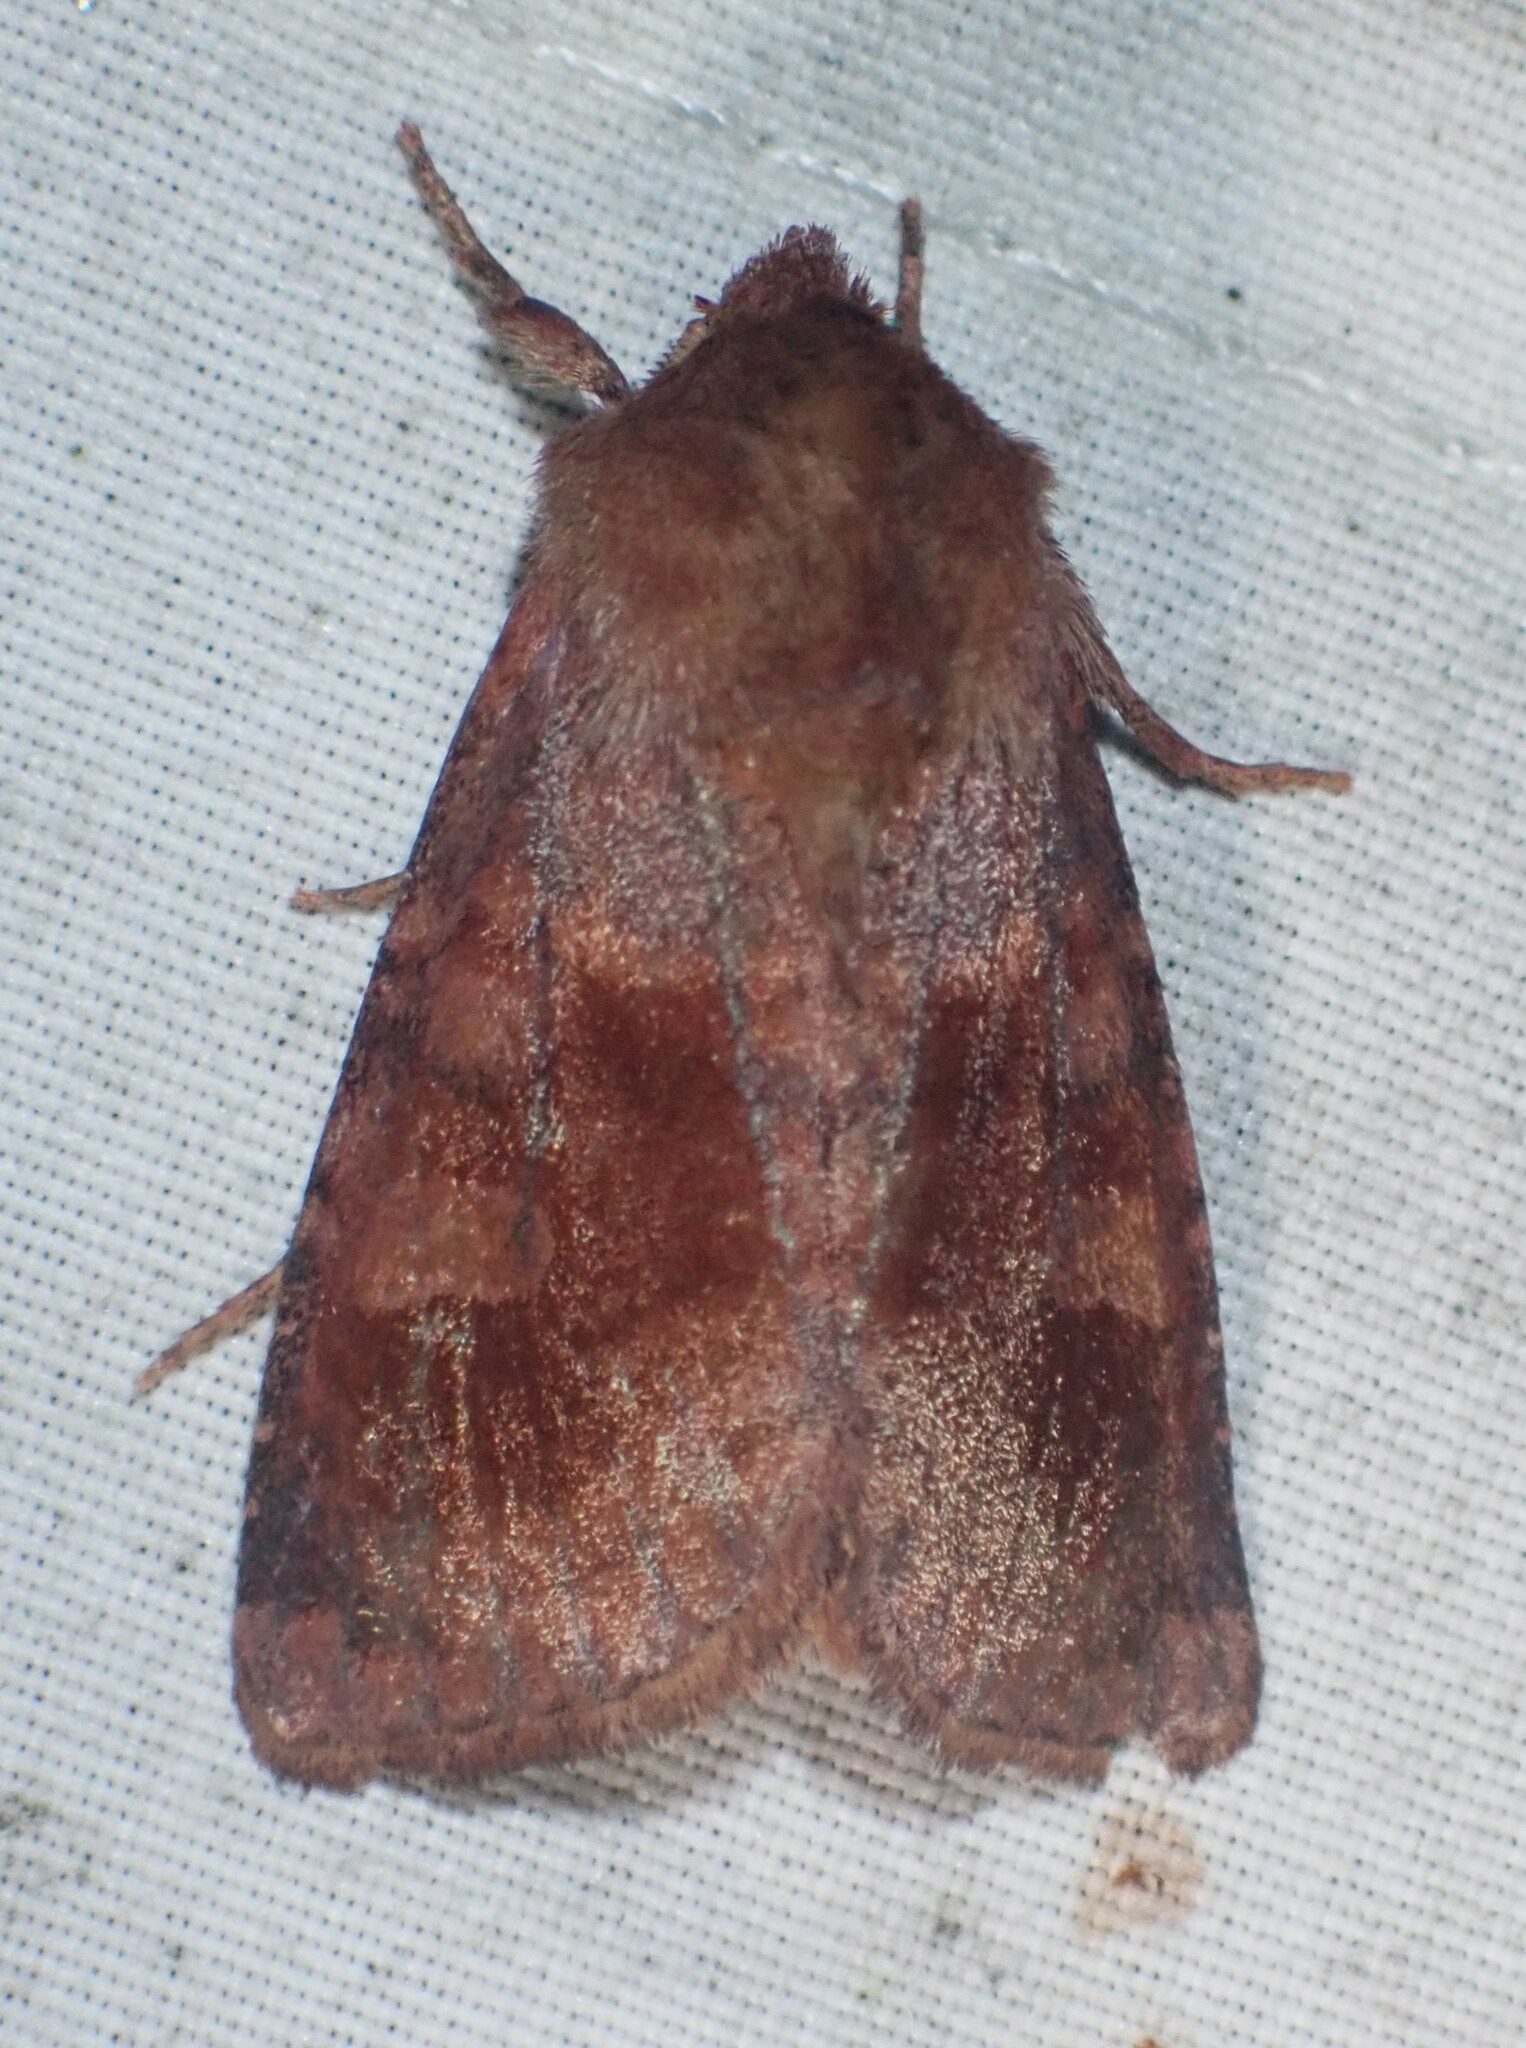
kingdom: Animalia
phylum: Arthropoda
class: Insecta
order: Lepidoptera
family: Noctuidae
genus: Nephelodes
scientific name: Nephelodes minians
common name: Bronzed cutworm
